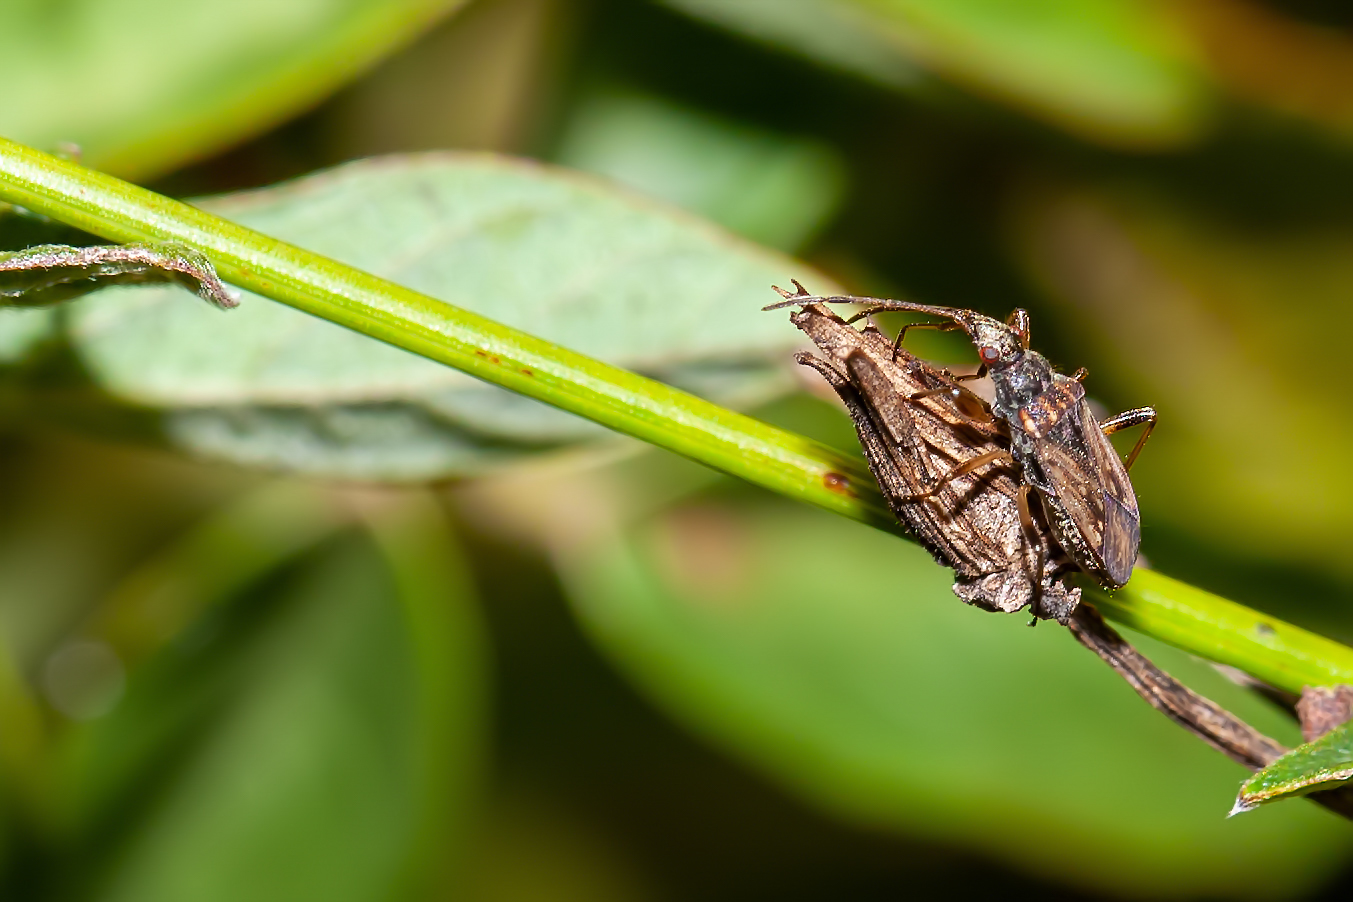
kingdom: Animalia
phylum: Arthropoda
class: Insecta
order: Hemiptera
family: Rhyparochromidae
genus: Ligyrocoris
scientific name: Ligyrocoris litigiosus
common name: Seed bug
